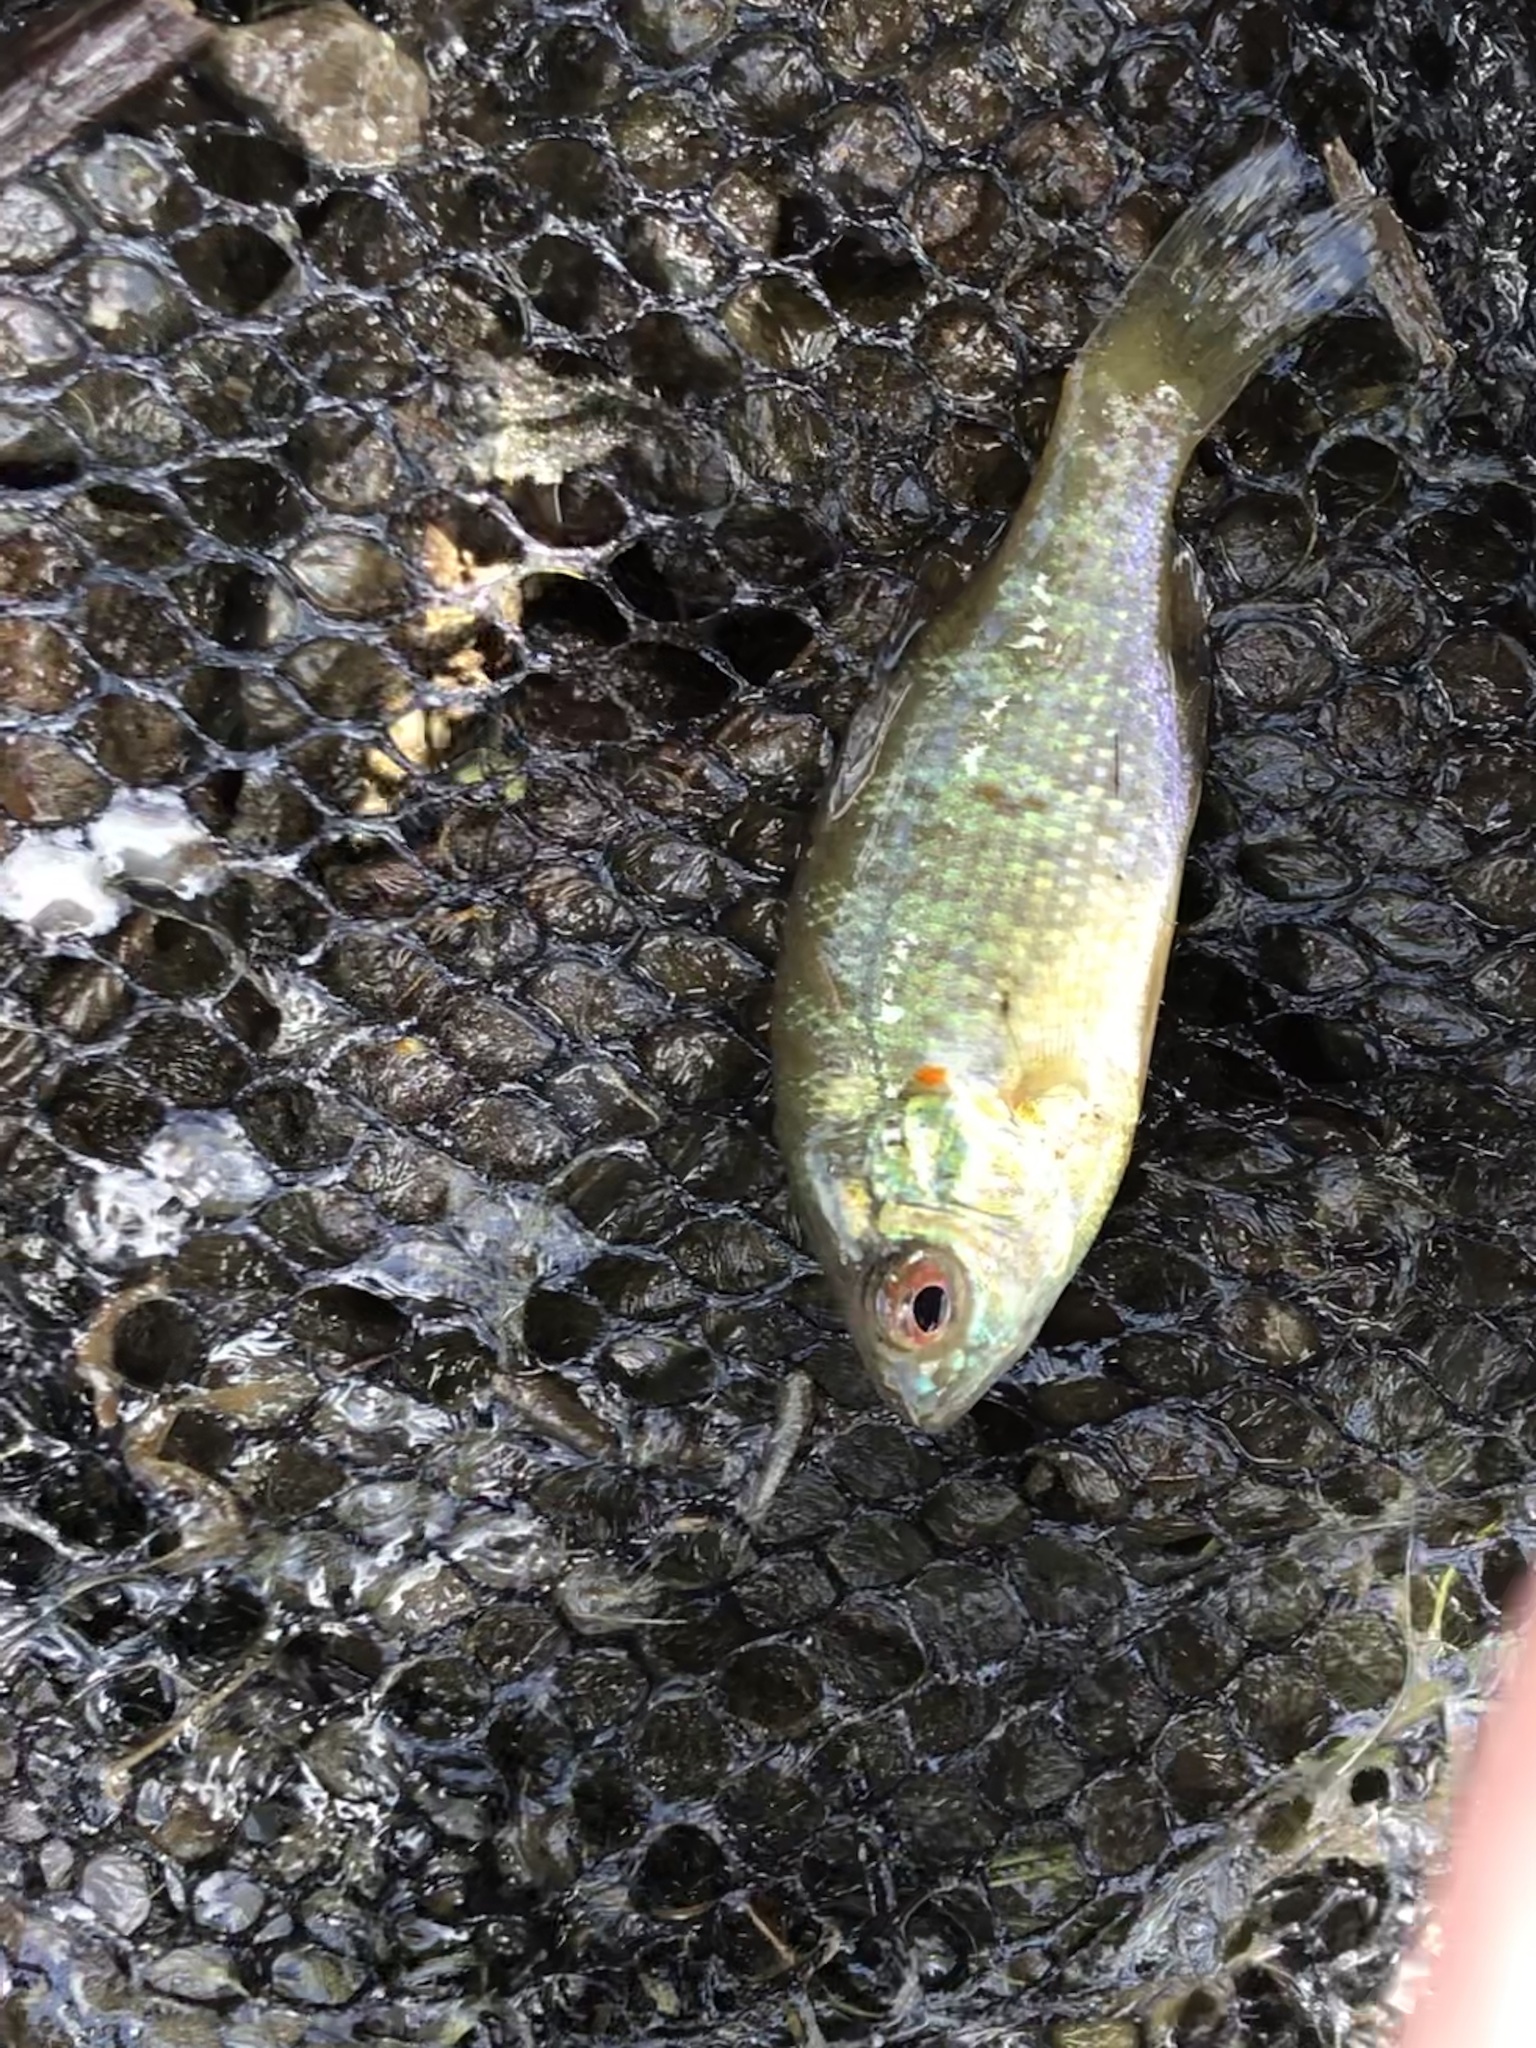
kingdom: Animalia
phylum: Chordata
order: Perciformes
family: Centrarchidae
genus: Lepomis
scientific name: Lepomis gibbosus
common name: Pumpkinseed
